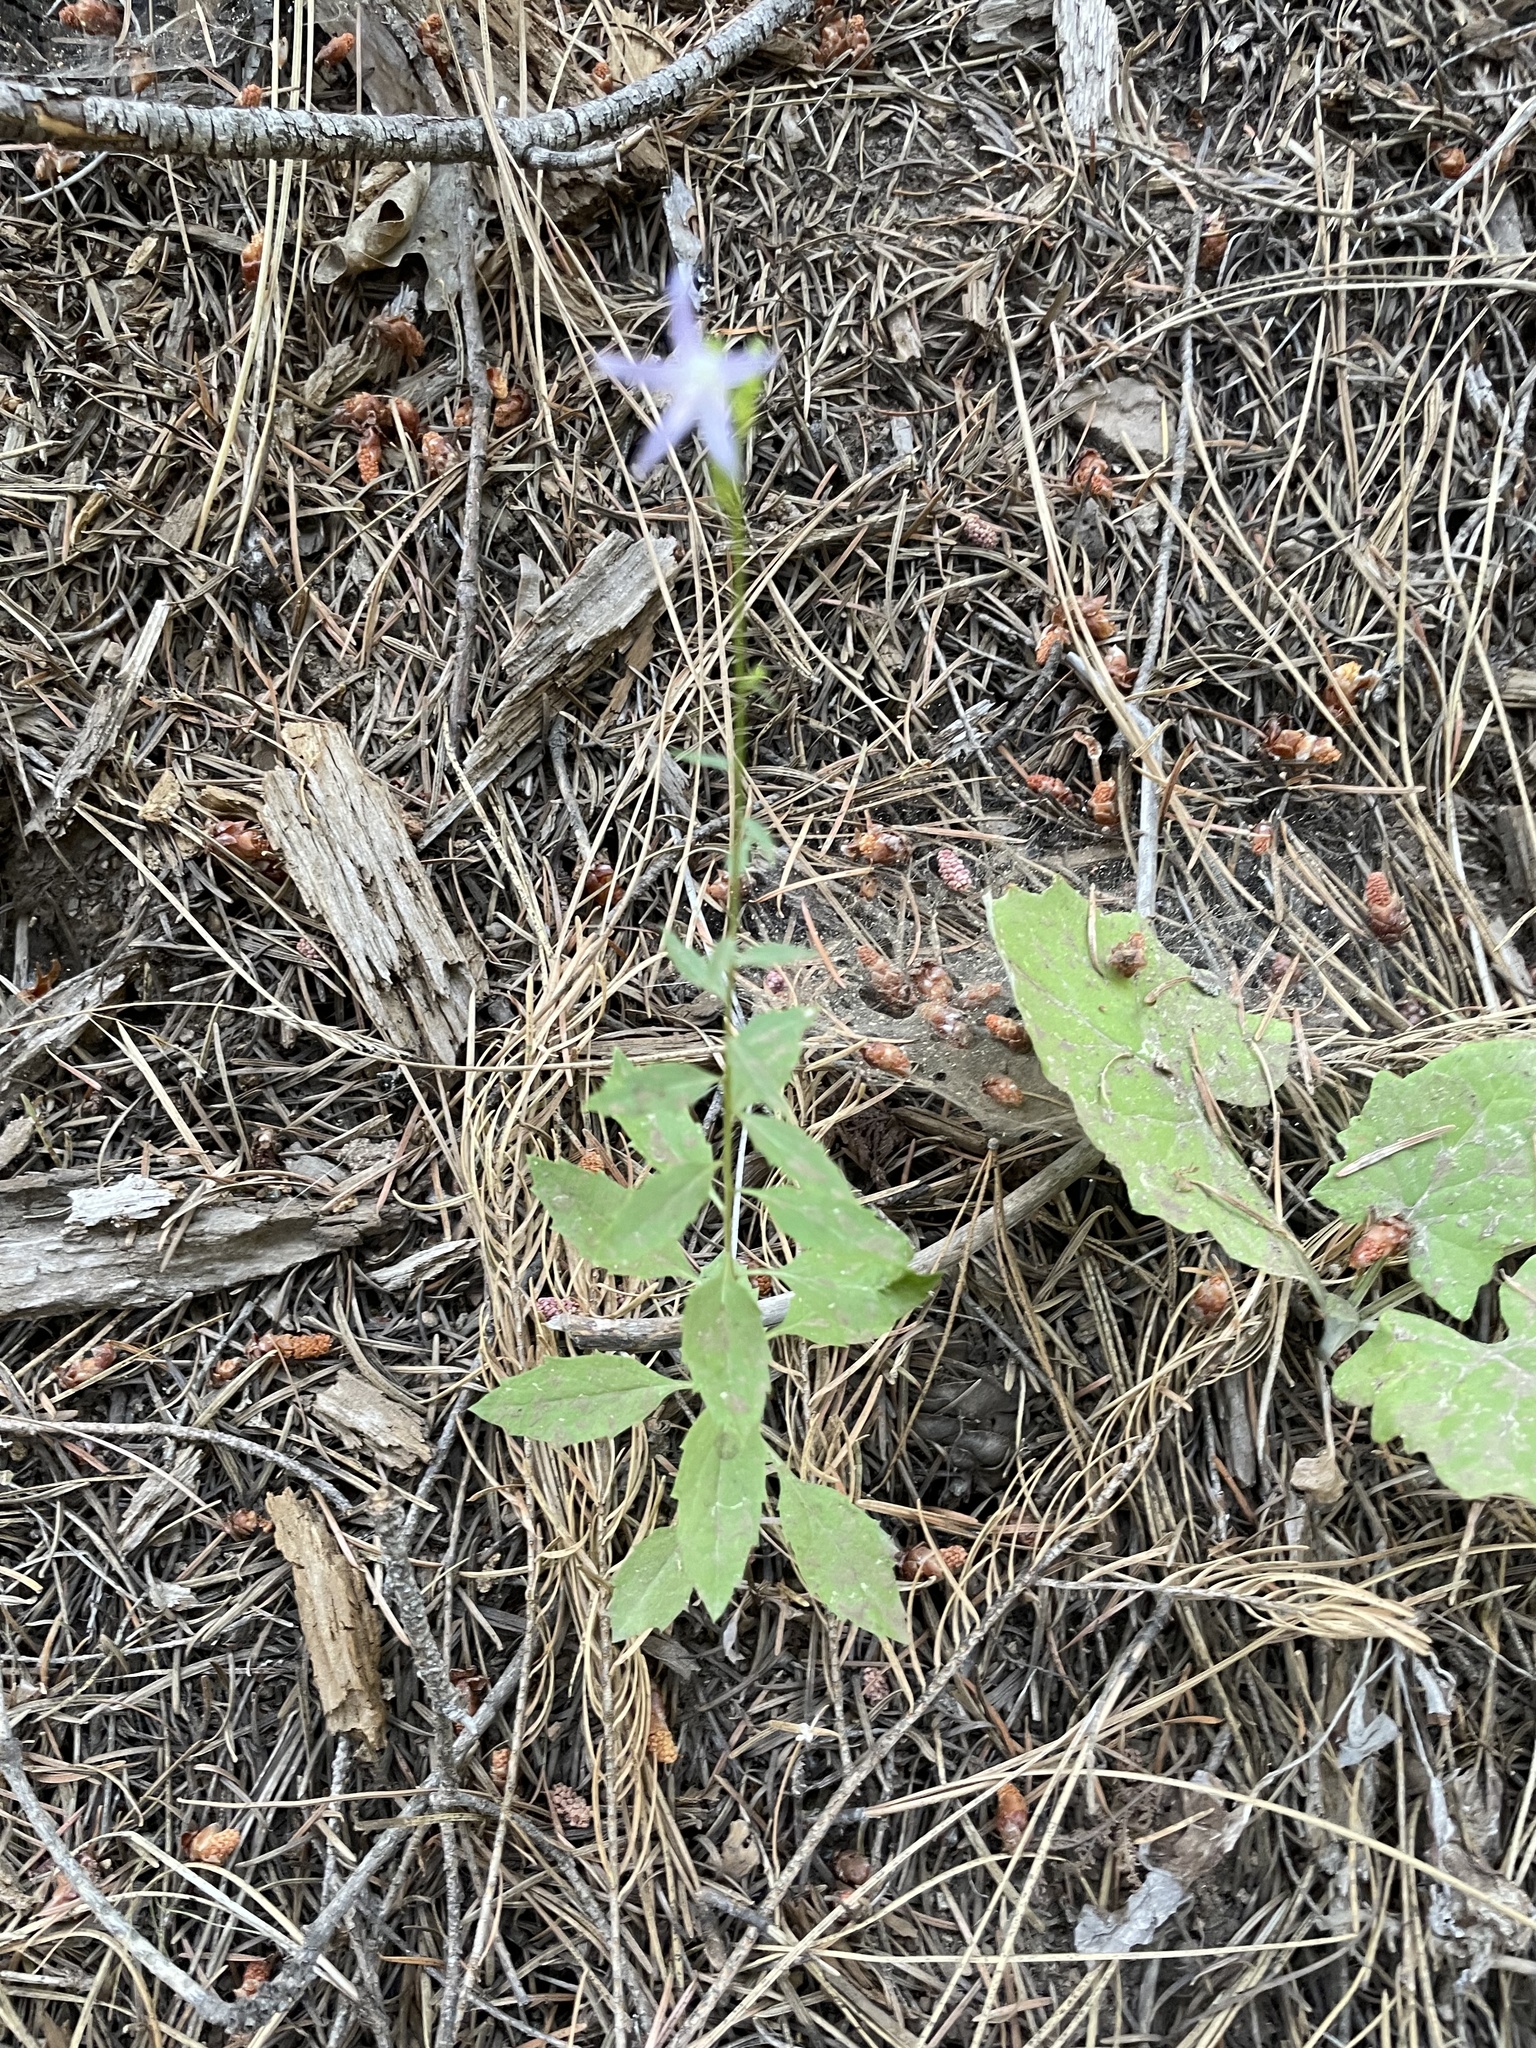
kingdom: Plantae
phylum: Tracheophyta
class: Magnoliopsida
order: Asterales
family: Campanulaceae
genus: Smithiastrum
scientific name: Smithiastrum prenanthoides
